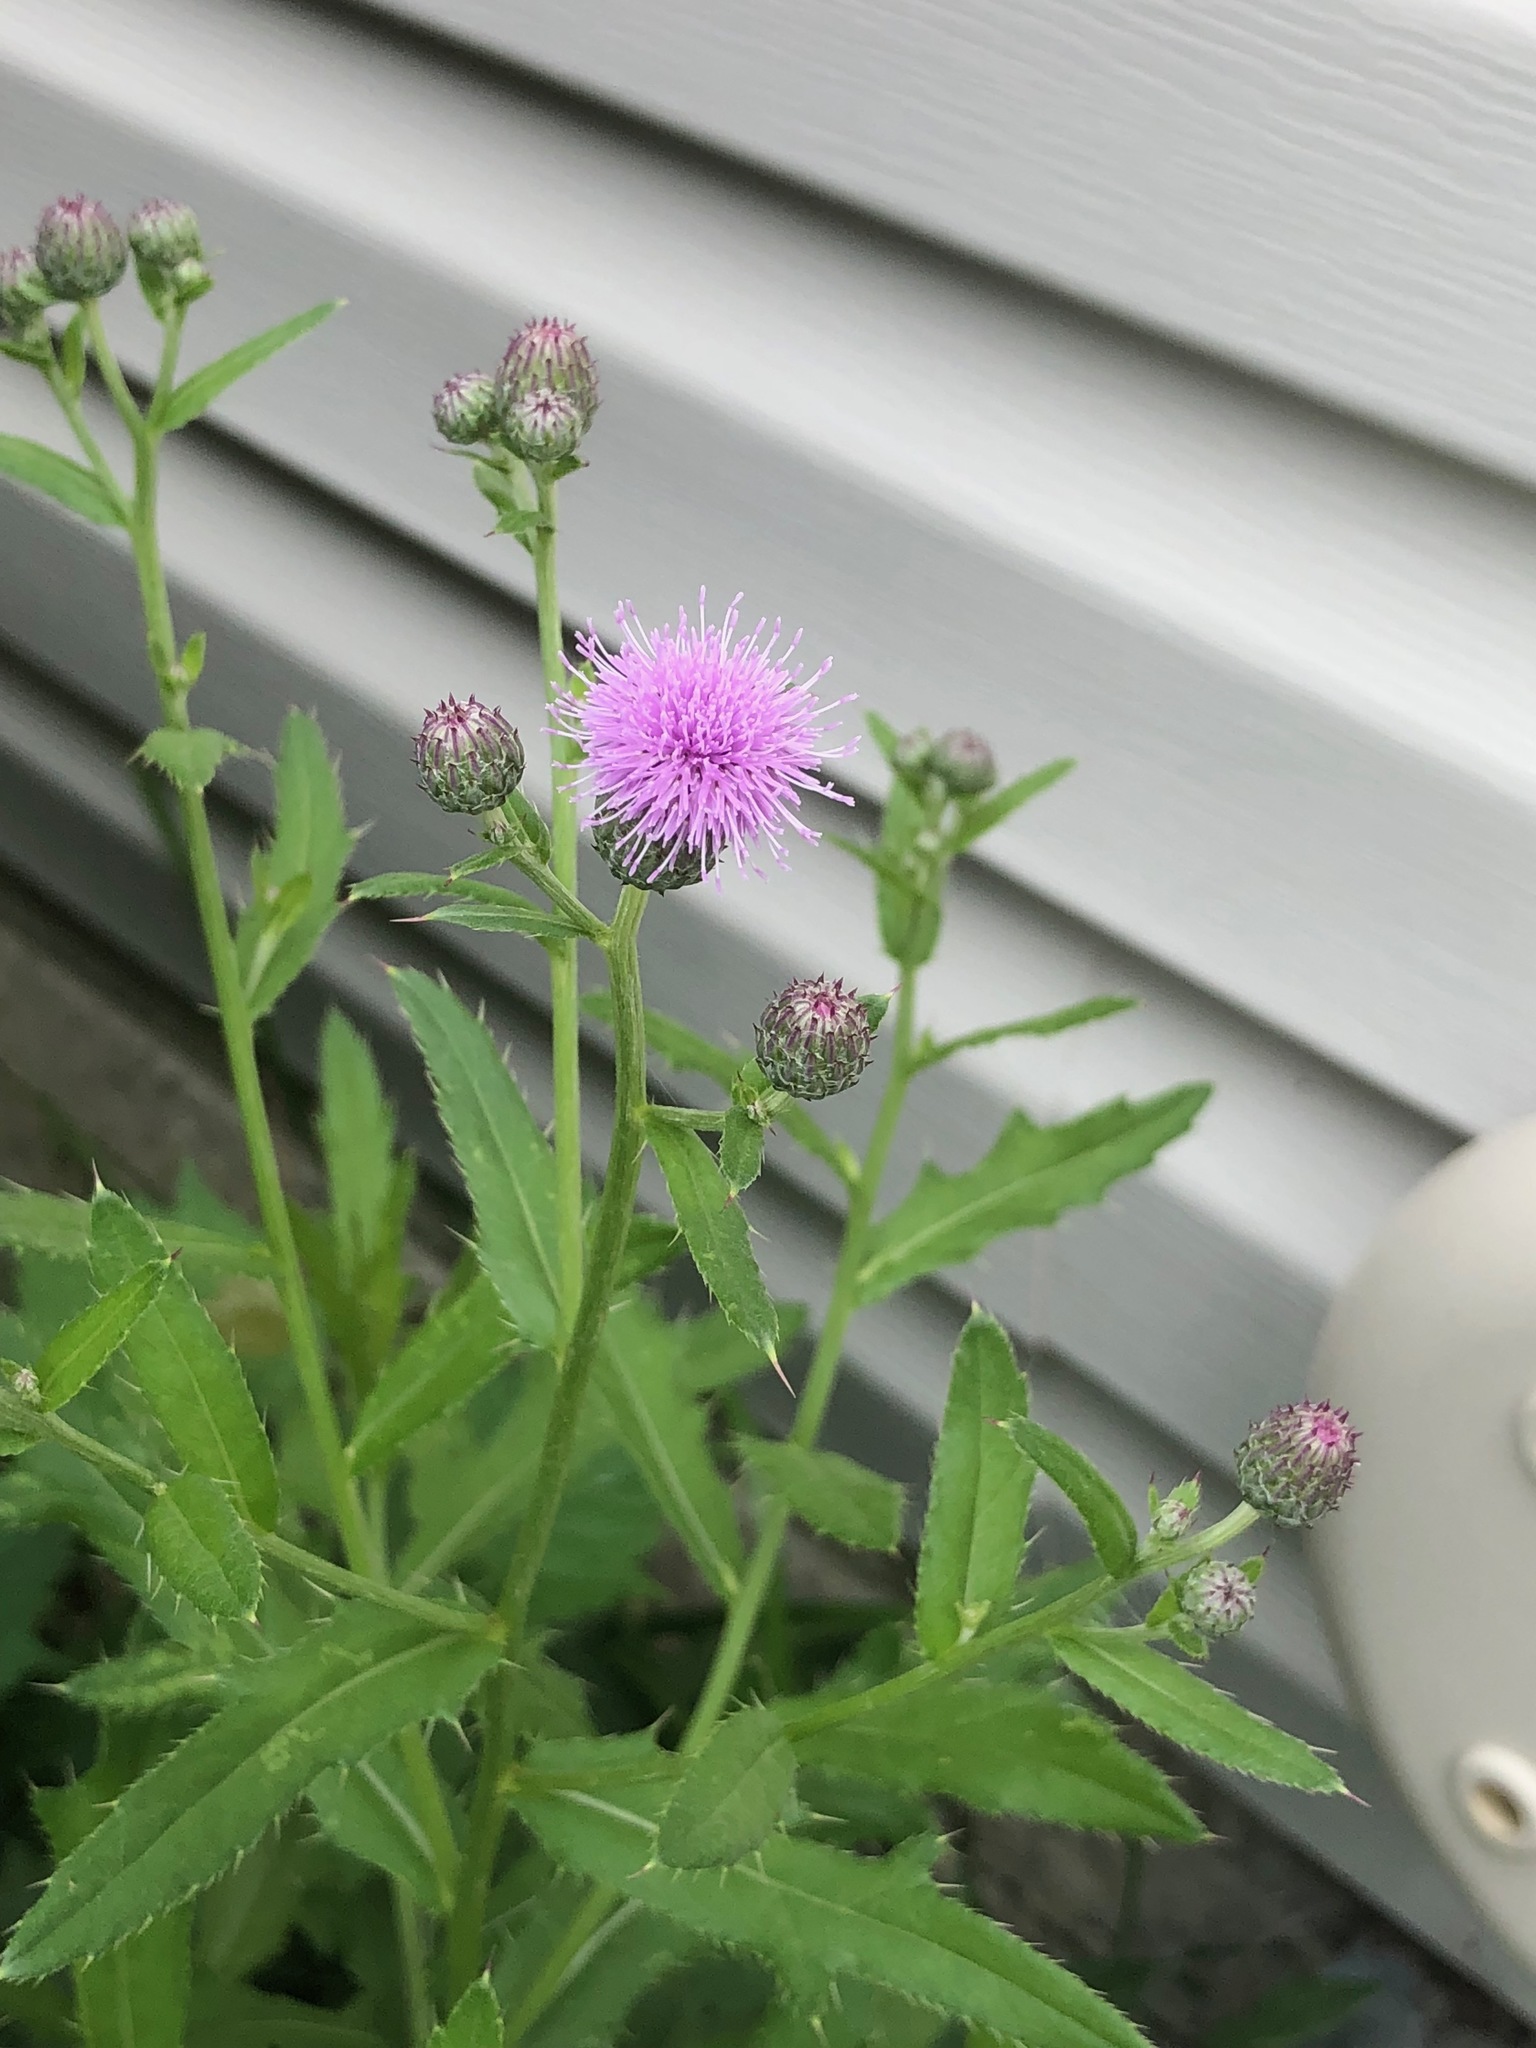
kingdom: Plantae
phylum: Tracheophyta
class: Magnoliopsida
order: Asterales
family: Asteraceae
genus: Cirsium
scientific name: Cirsium arvense
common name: Creeping thistle
